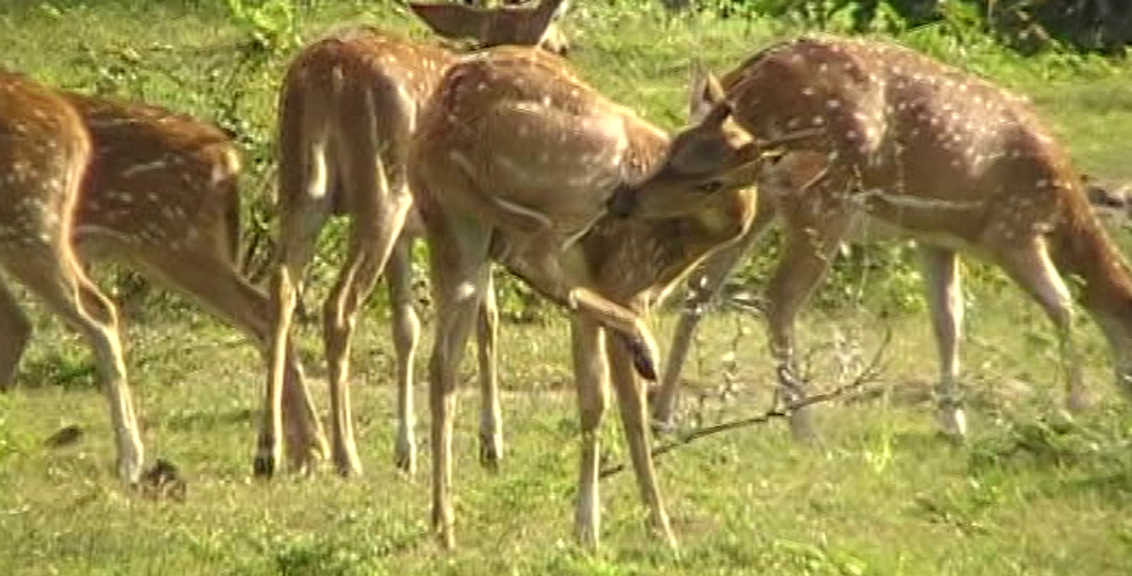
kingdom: Animalia
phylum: Chordata
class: Mammalia
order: Artiodactyla
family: Cervidae
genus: Axis
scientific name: Axis axis
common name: Chital
